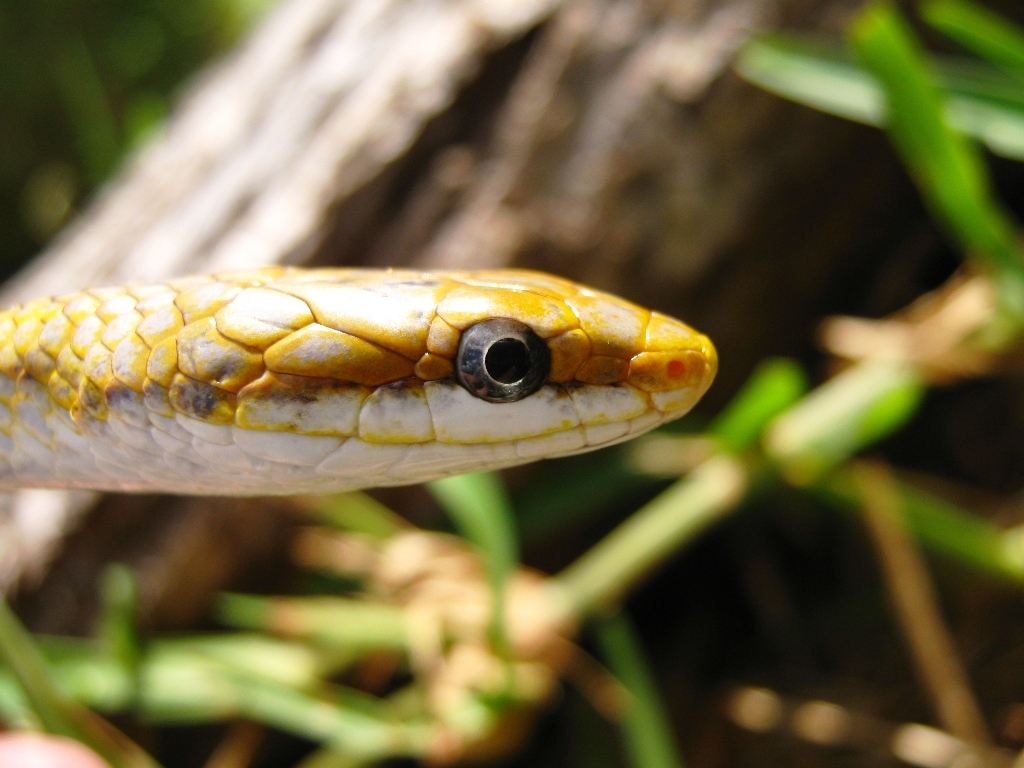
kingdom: Animalia
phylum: Chordata
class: Squamata
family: Colubridae
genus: Symphimus
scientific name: Symphimus mayae
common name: Yucatán white-lipped snake
